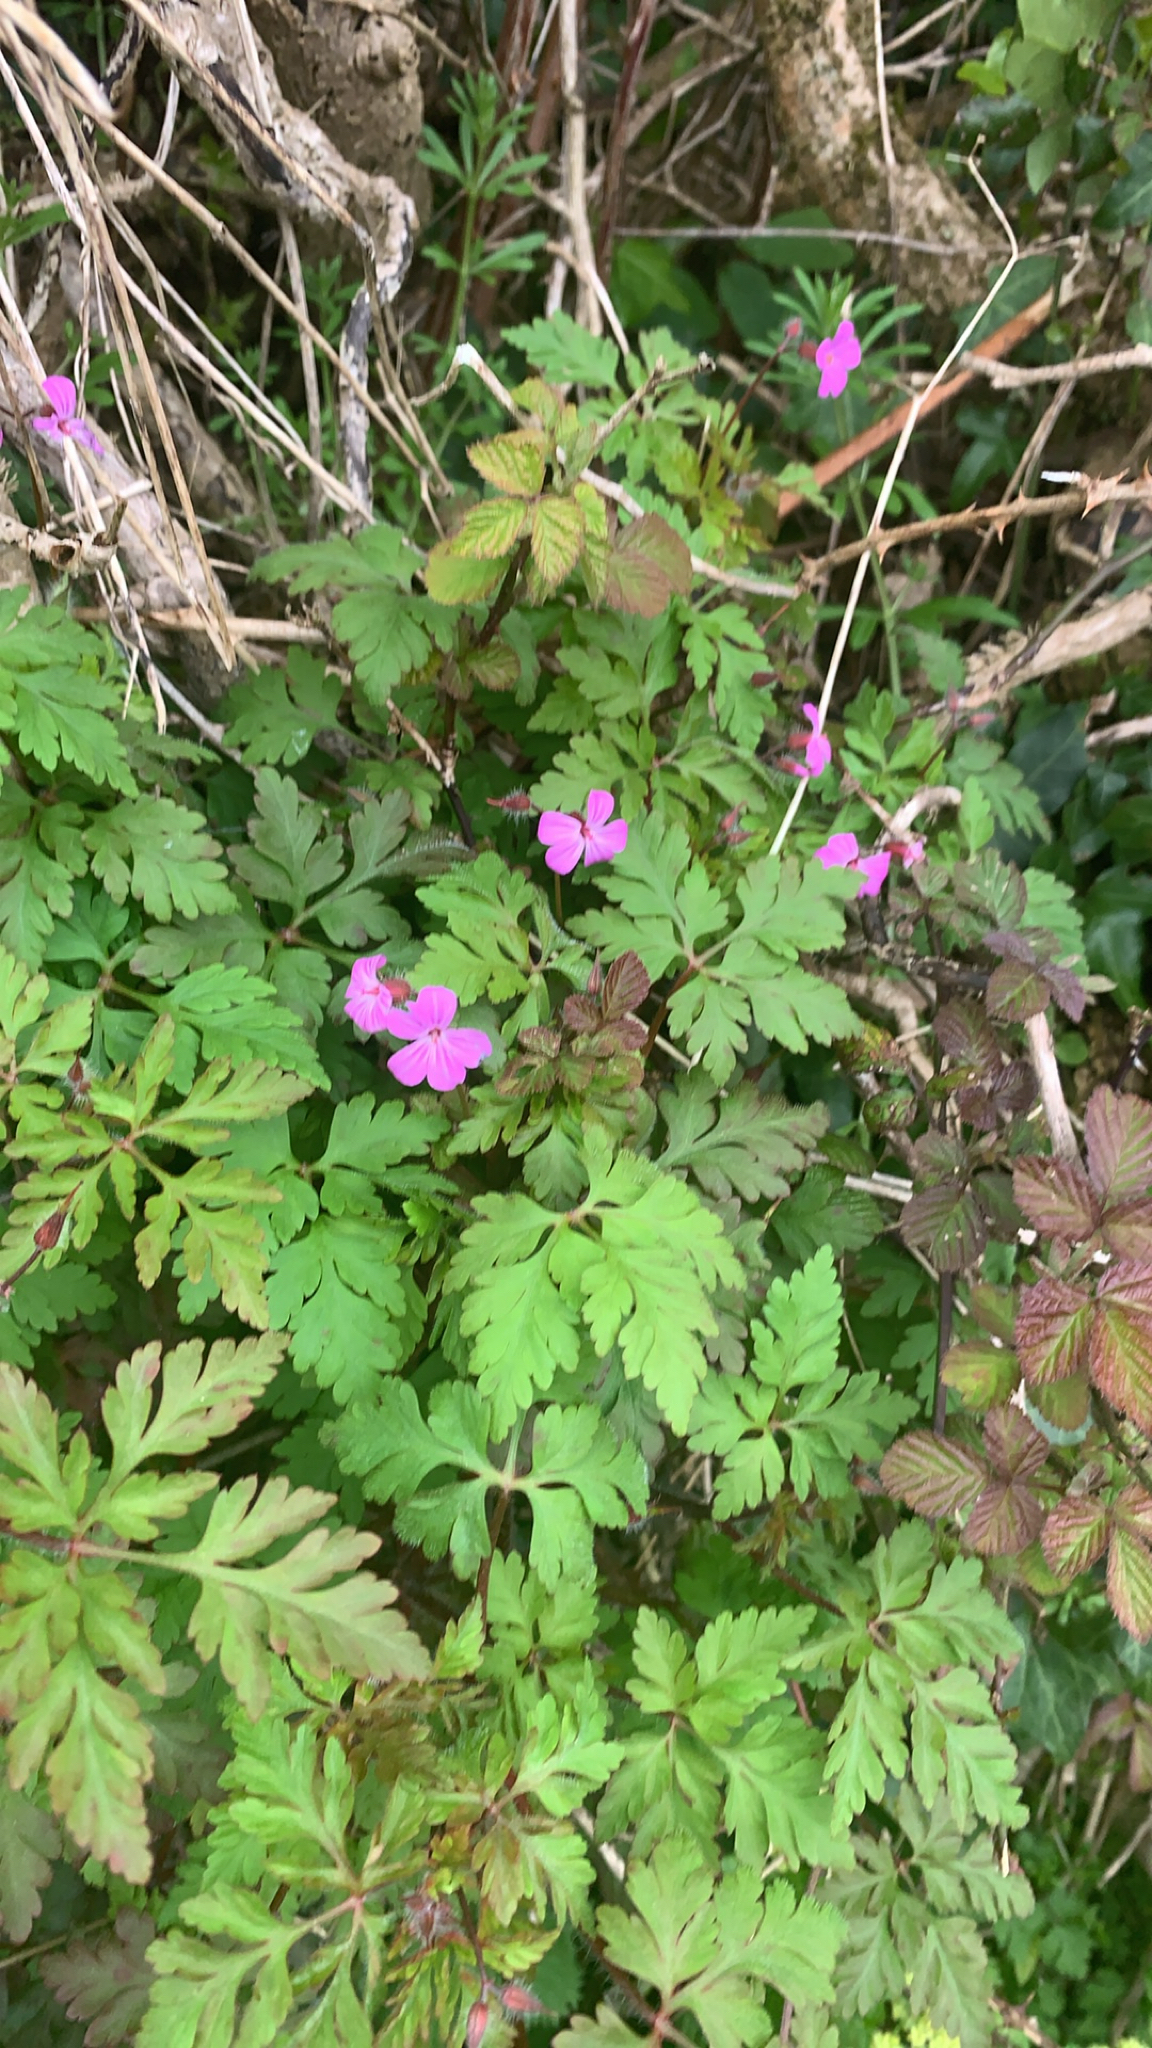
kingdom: Plantae
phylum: Tracheophyta
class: Magnoliopsida
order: Geraniales
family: Geraniaceae
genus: Geranium
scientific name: Geranium robertianum
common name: Herb-robert
